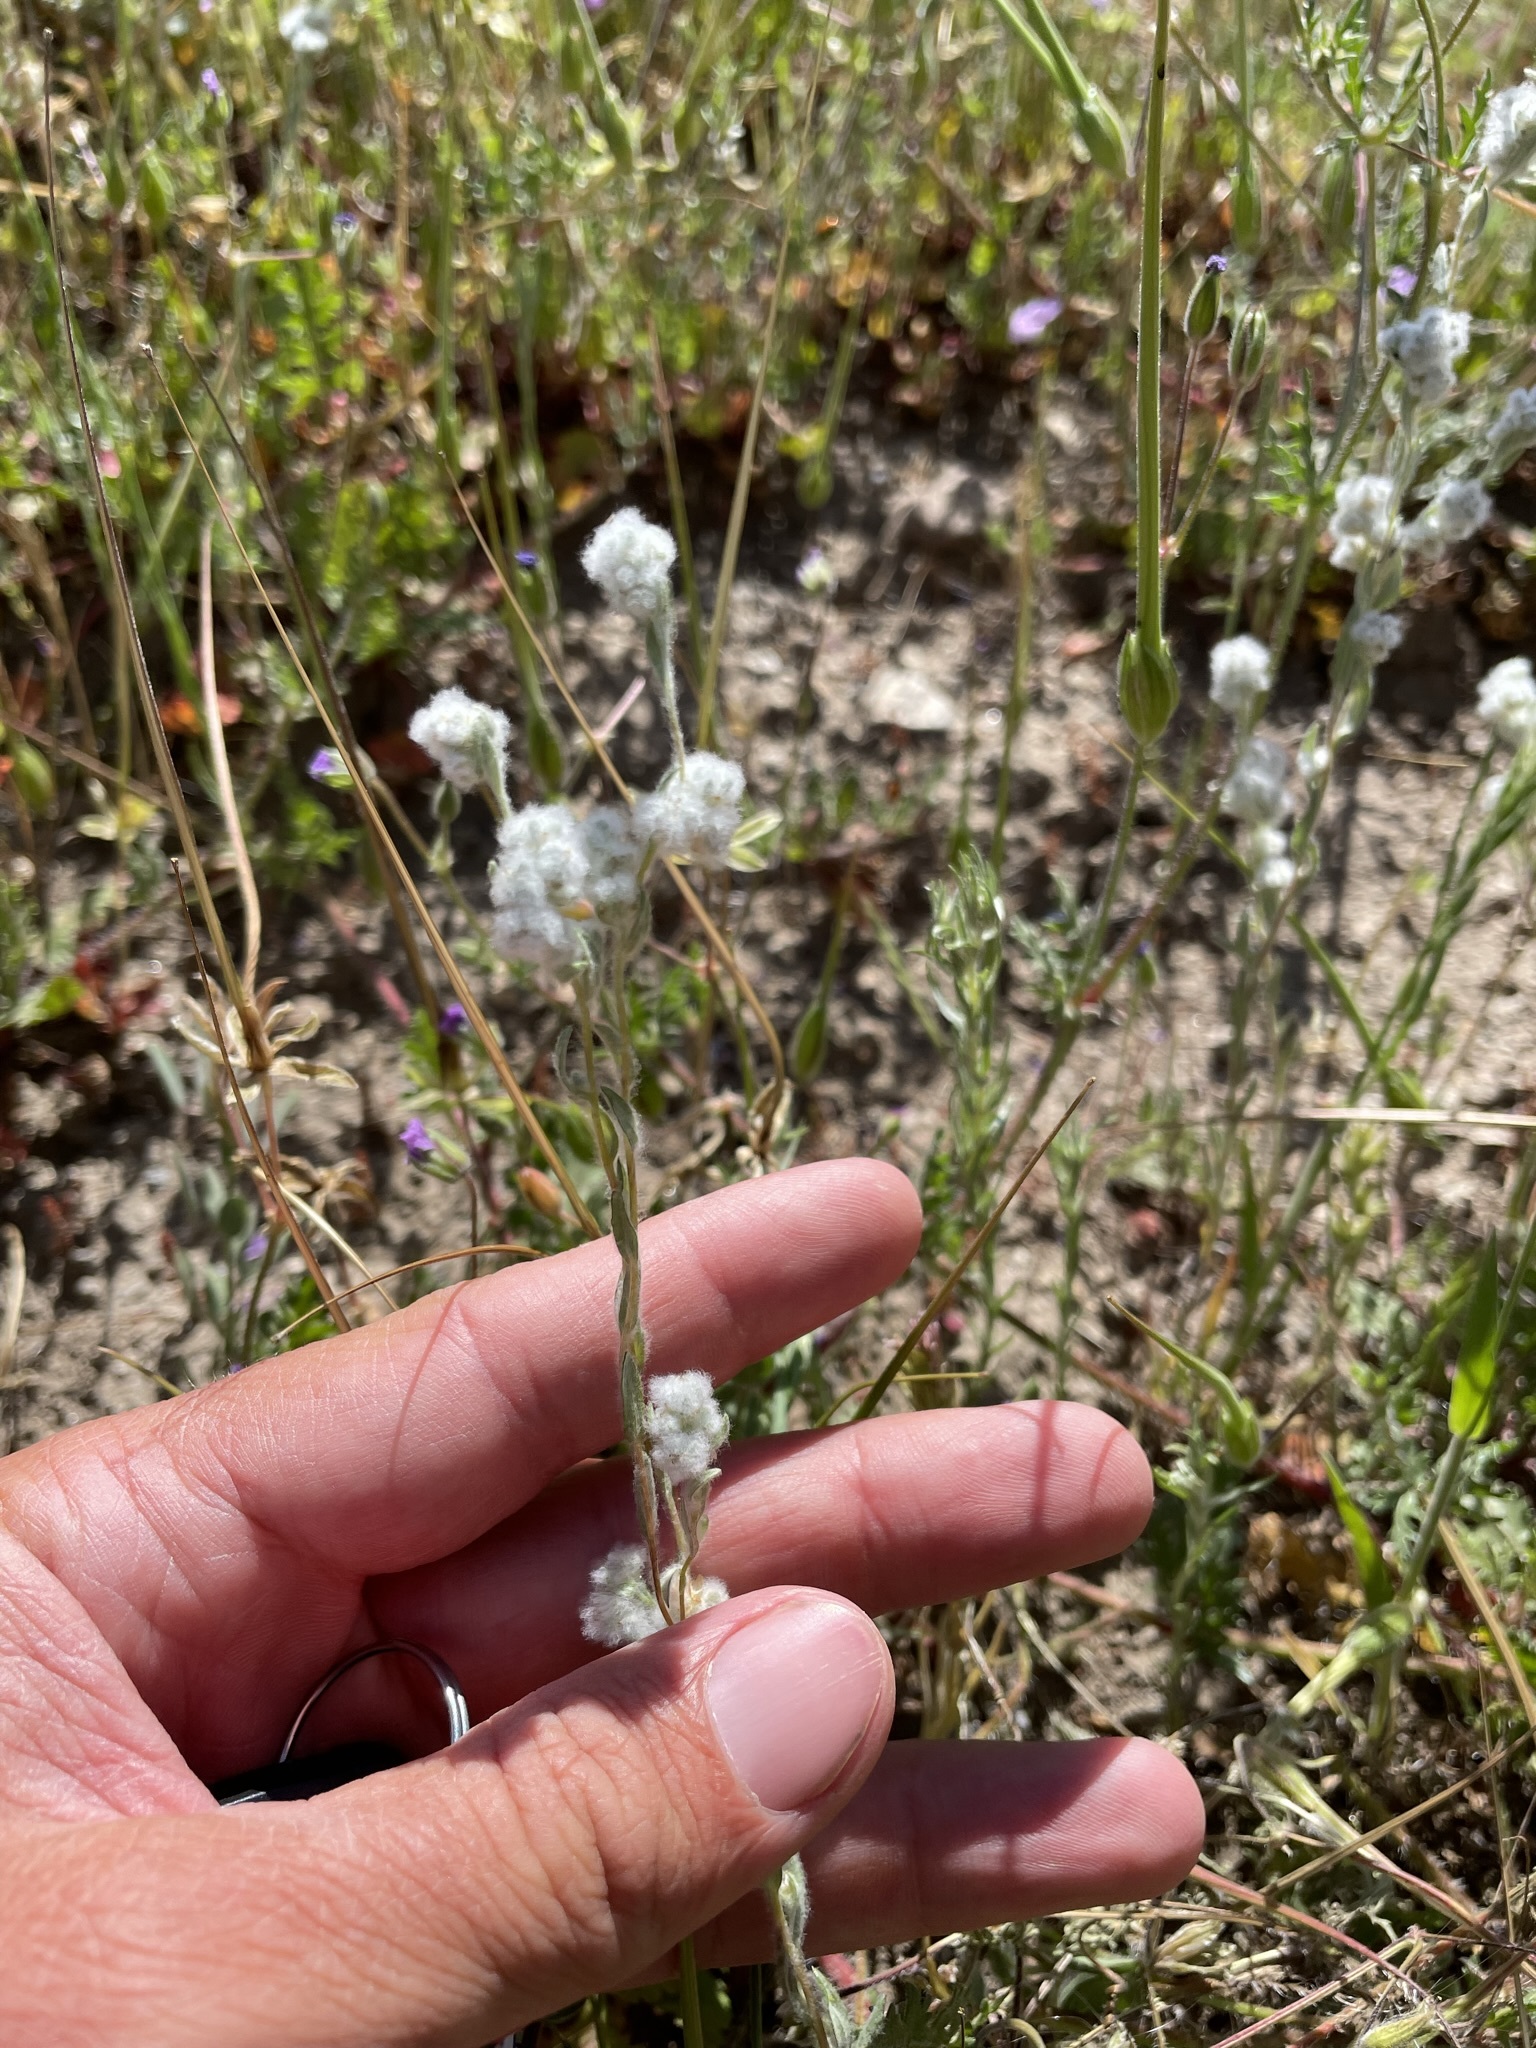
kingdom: Plantae
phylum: Tracheophyta
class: Magnoliopsida
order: Asterales
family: Asteraceae
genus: Bombycilaena
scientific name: Bombycilaena californica
